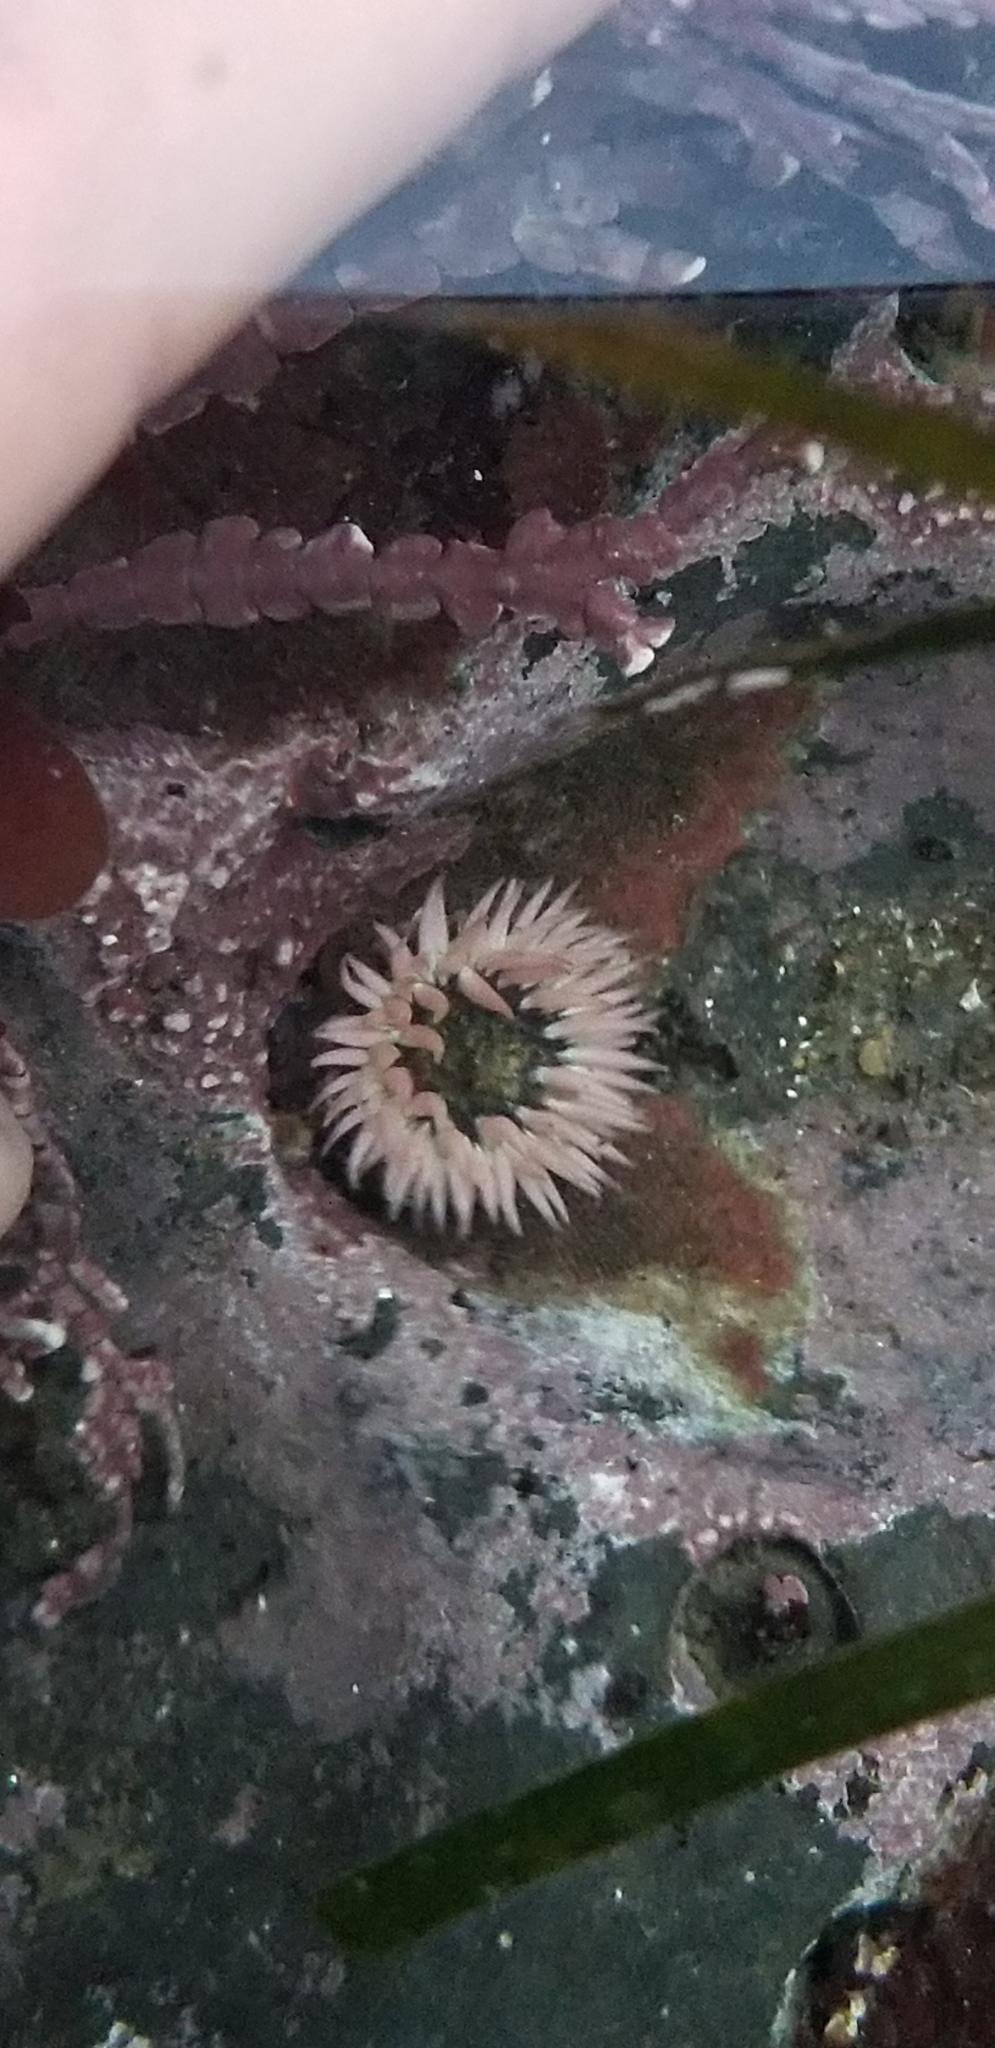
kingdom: Animalia
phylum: Cnidaria
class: Anthozoa
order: Actiniaria
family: Actiniidae
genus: Anthopleura
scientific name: Anthopleura artemisia
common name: Buried sea anemone
